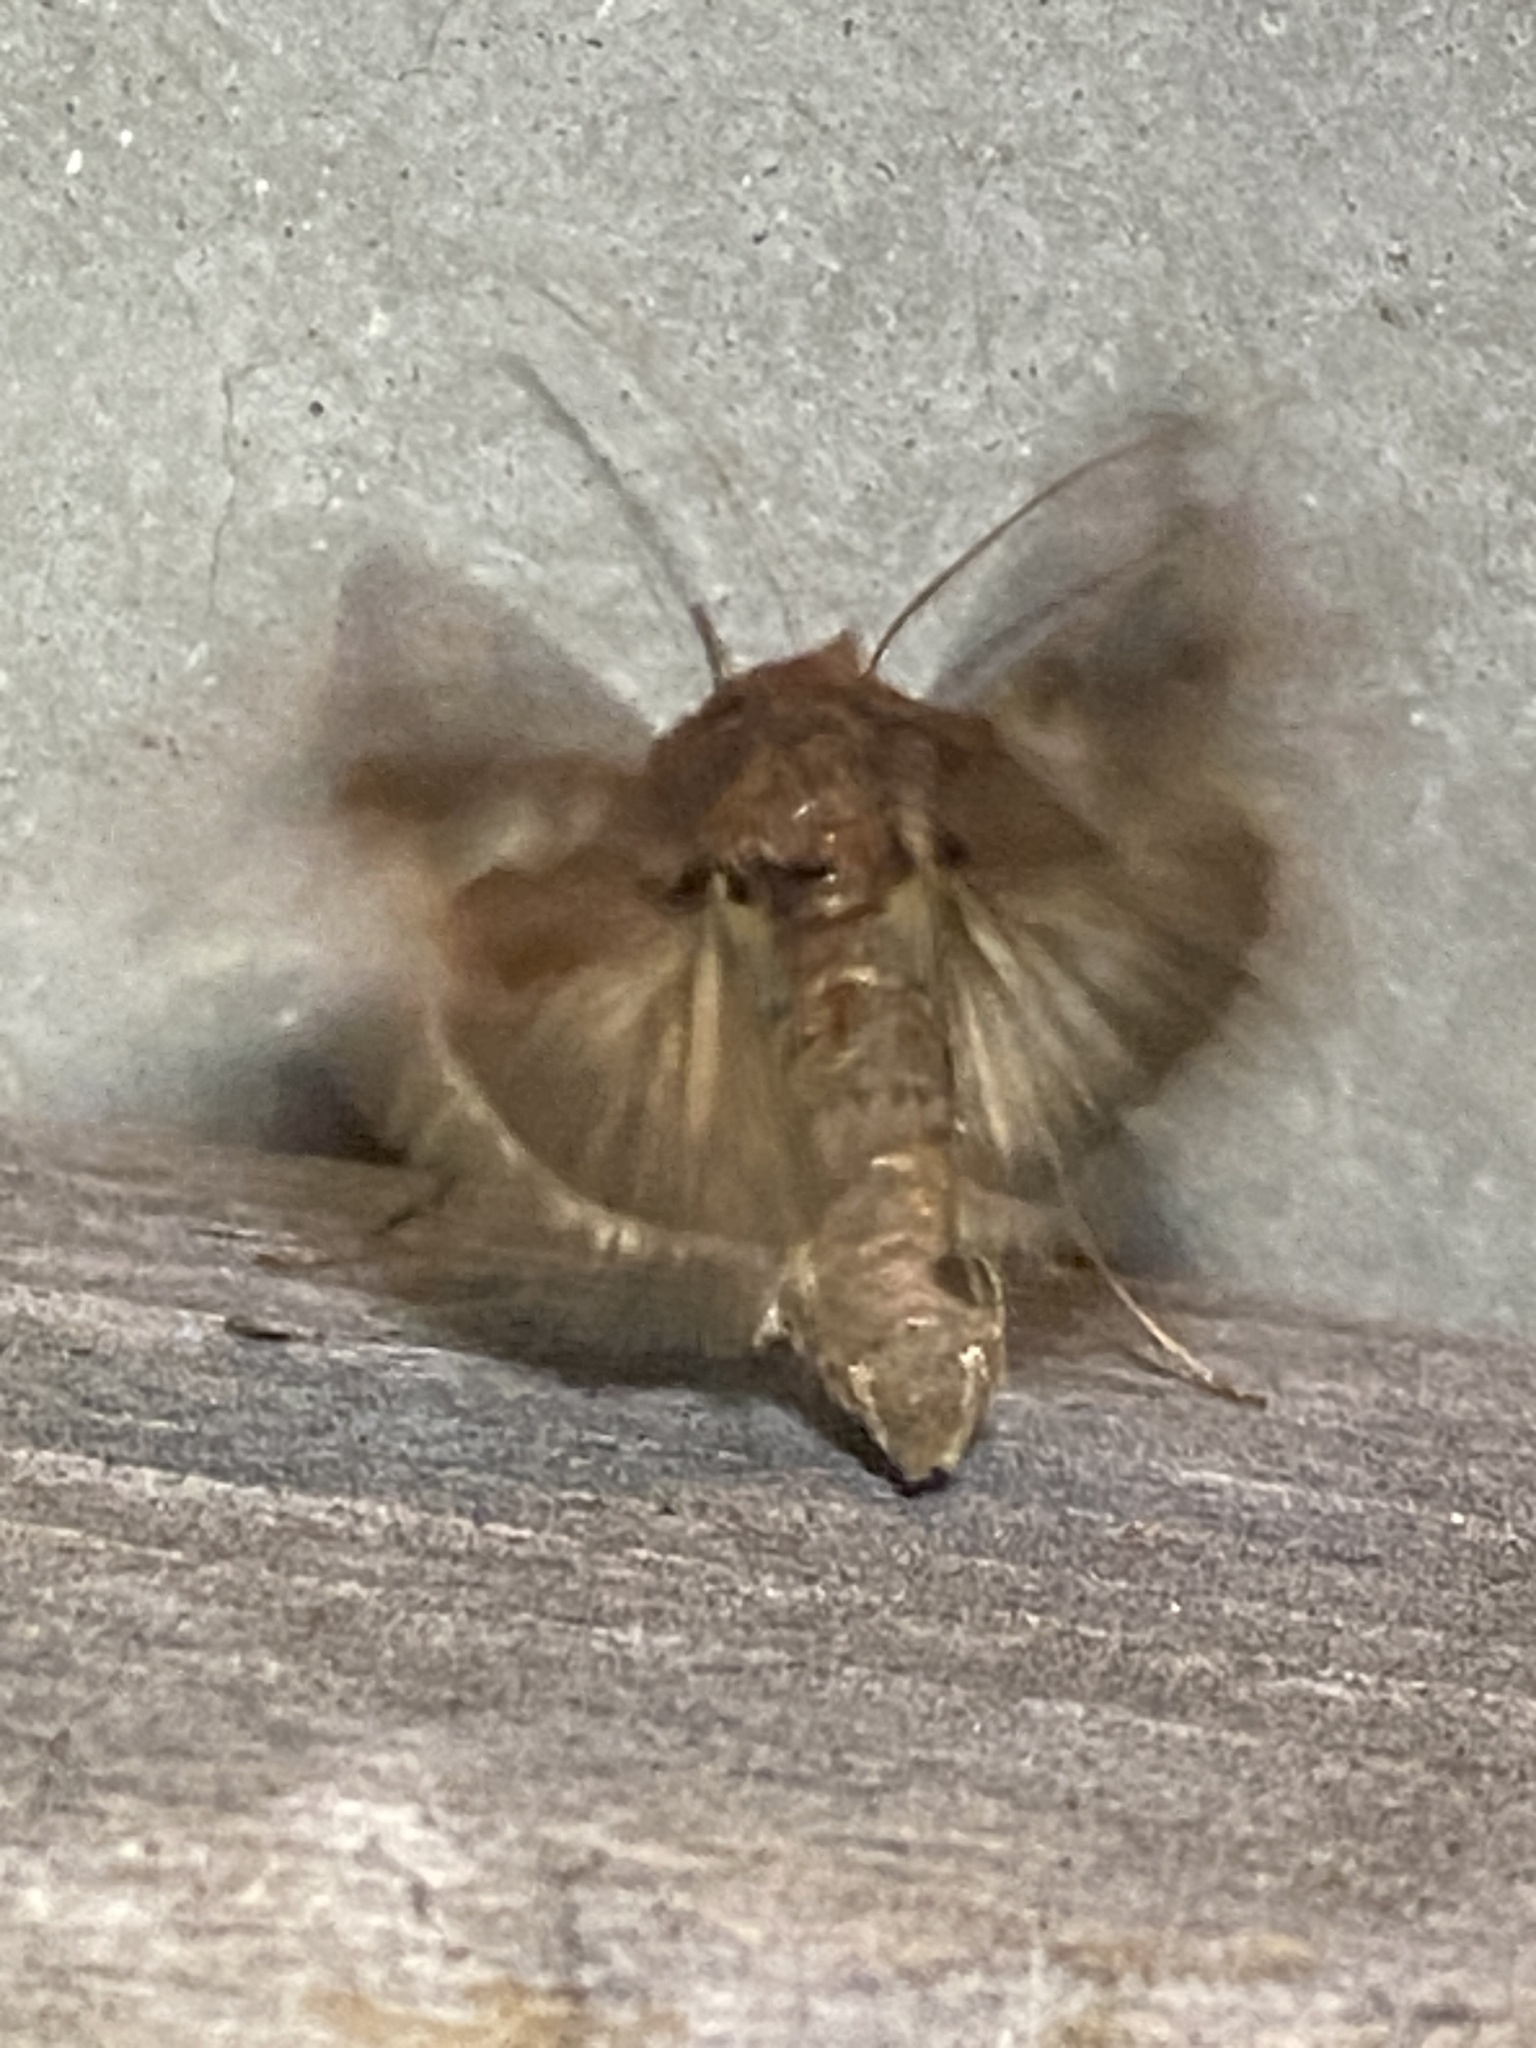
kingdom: Animalia
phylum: Arthropoda
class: Insecta
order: Lepidoptera
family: Noctuidae
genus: Megalographa
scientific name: Megalographa biloba
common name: Cutworm
